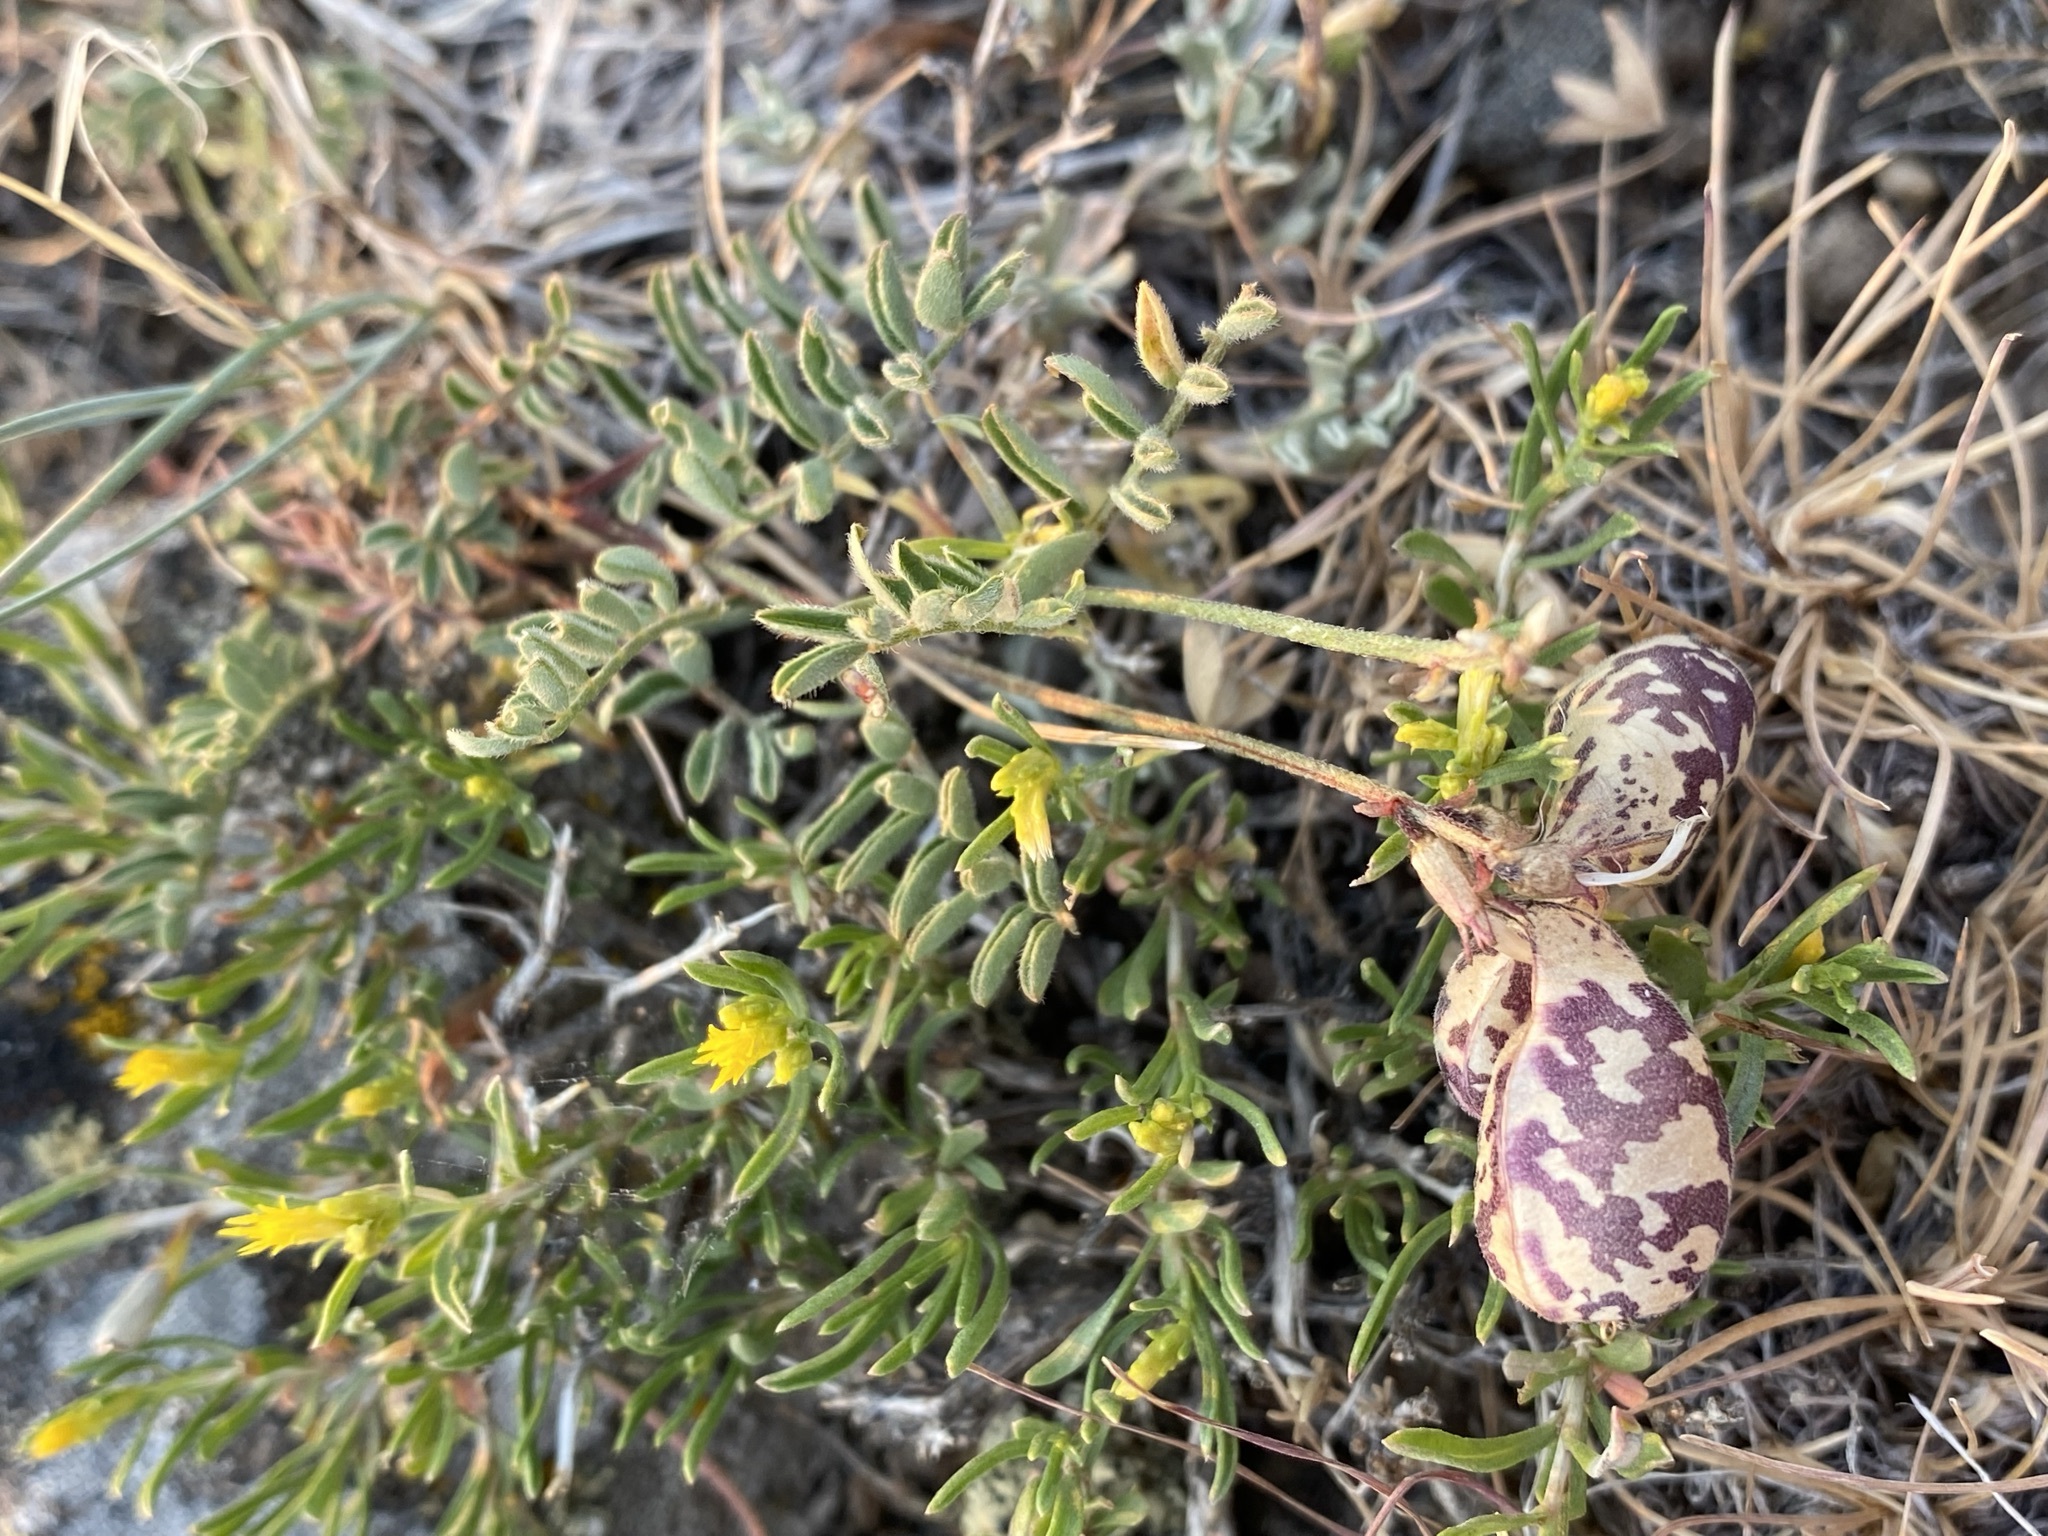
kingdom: Plantae
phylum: Tracheophyta
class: Magnoliopsida
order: Fabales
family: Fabaceae
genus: Astragalus
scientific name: Astragalus whitneyi
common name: Balloonpod milkvetch
